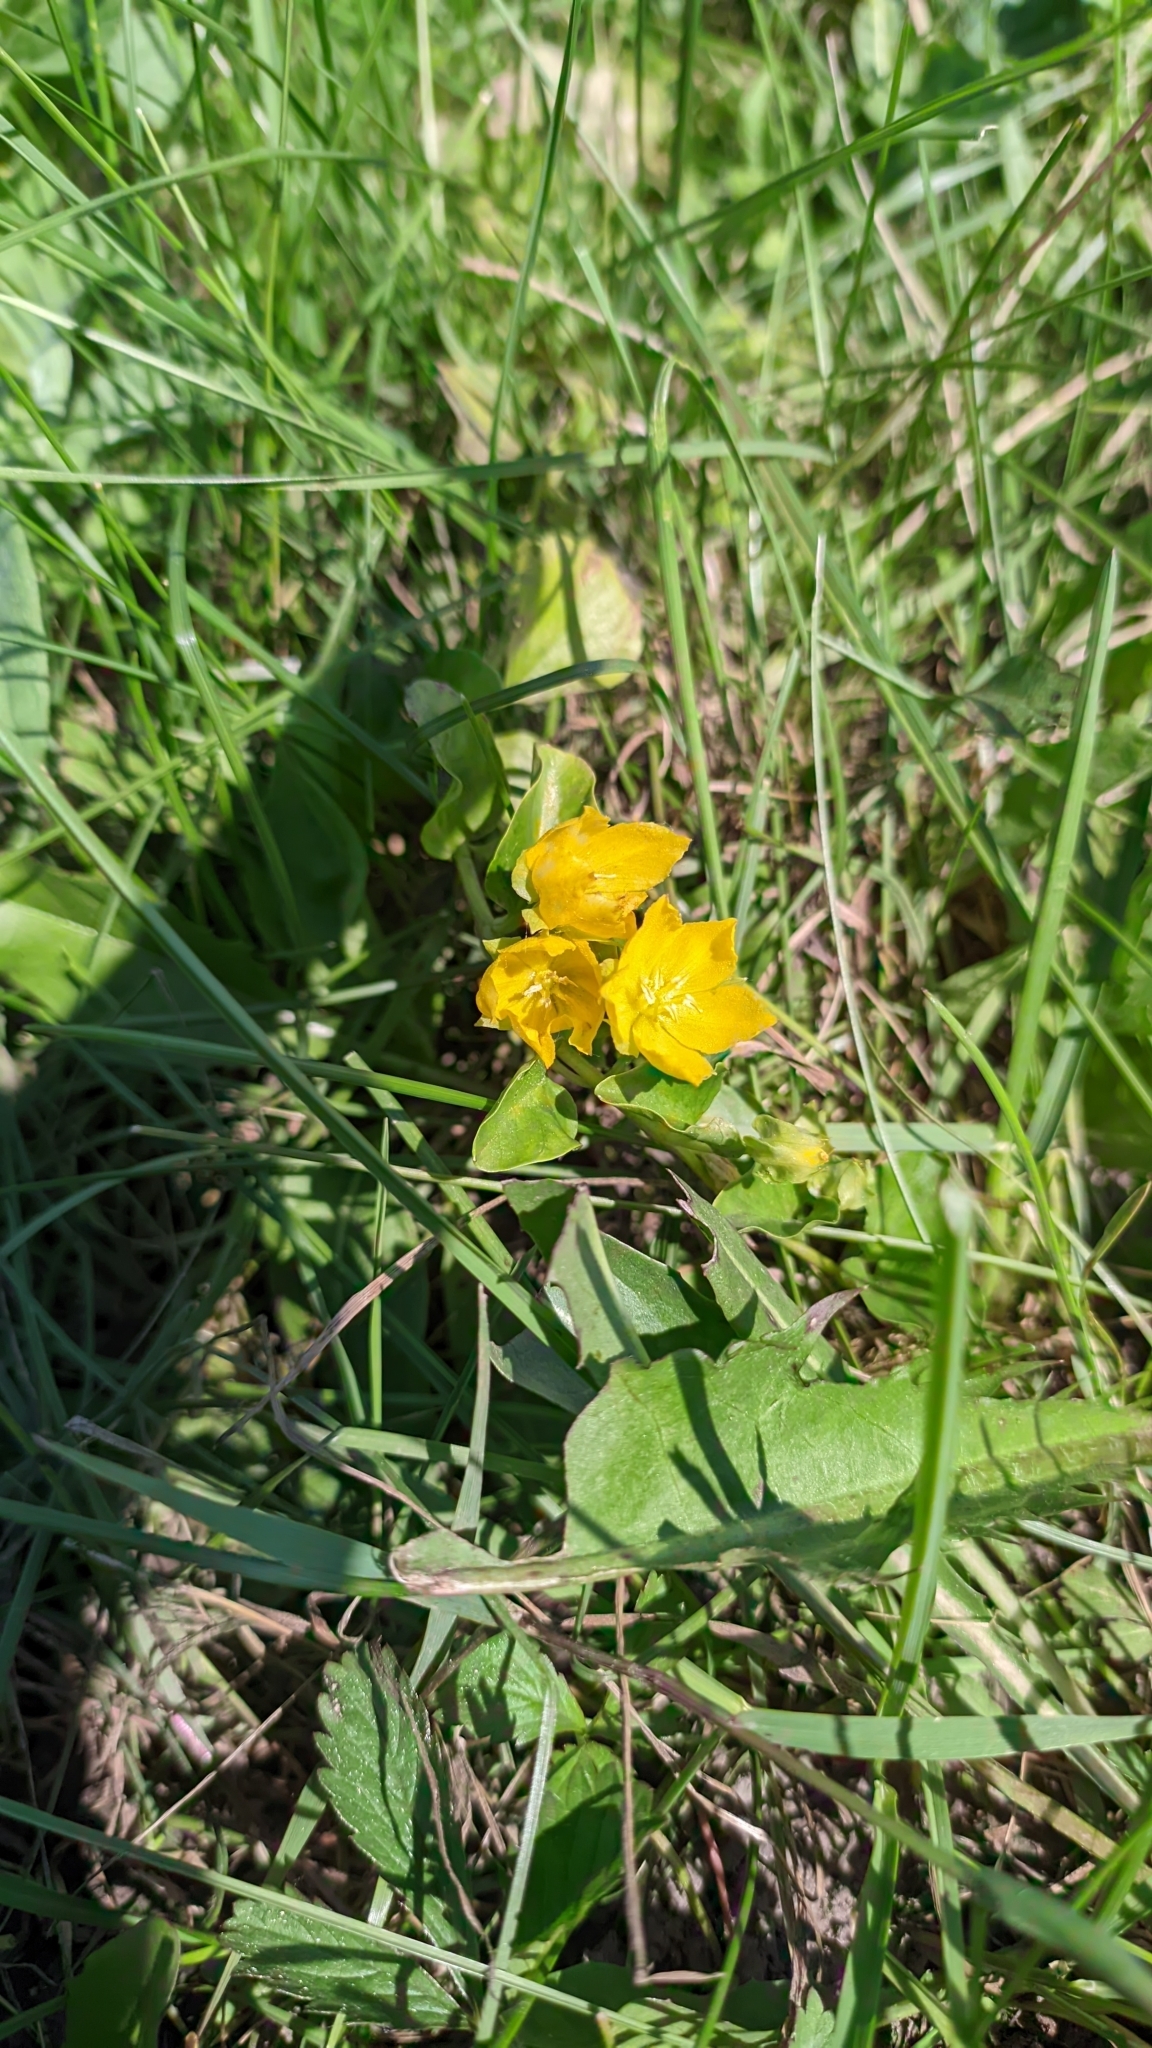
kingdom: Plantae
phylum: Tracheophyta
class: Magnoliopsida
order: Ericales
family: Primulaceae
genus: Lysimachia
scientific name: Lysimachia nummularia
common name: Moneywort
